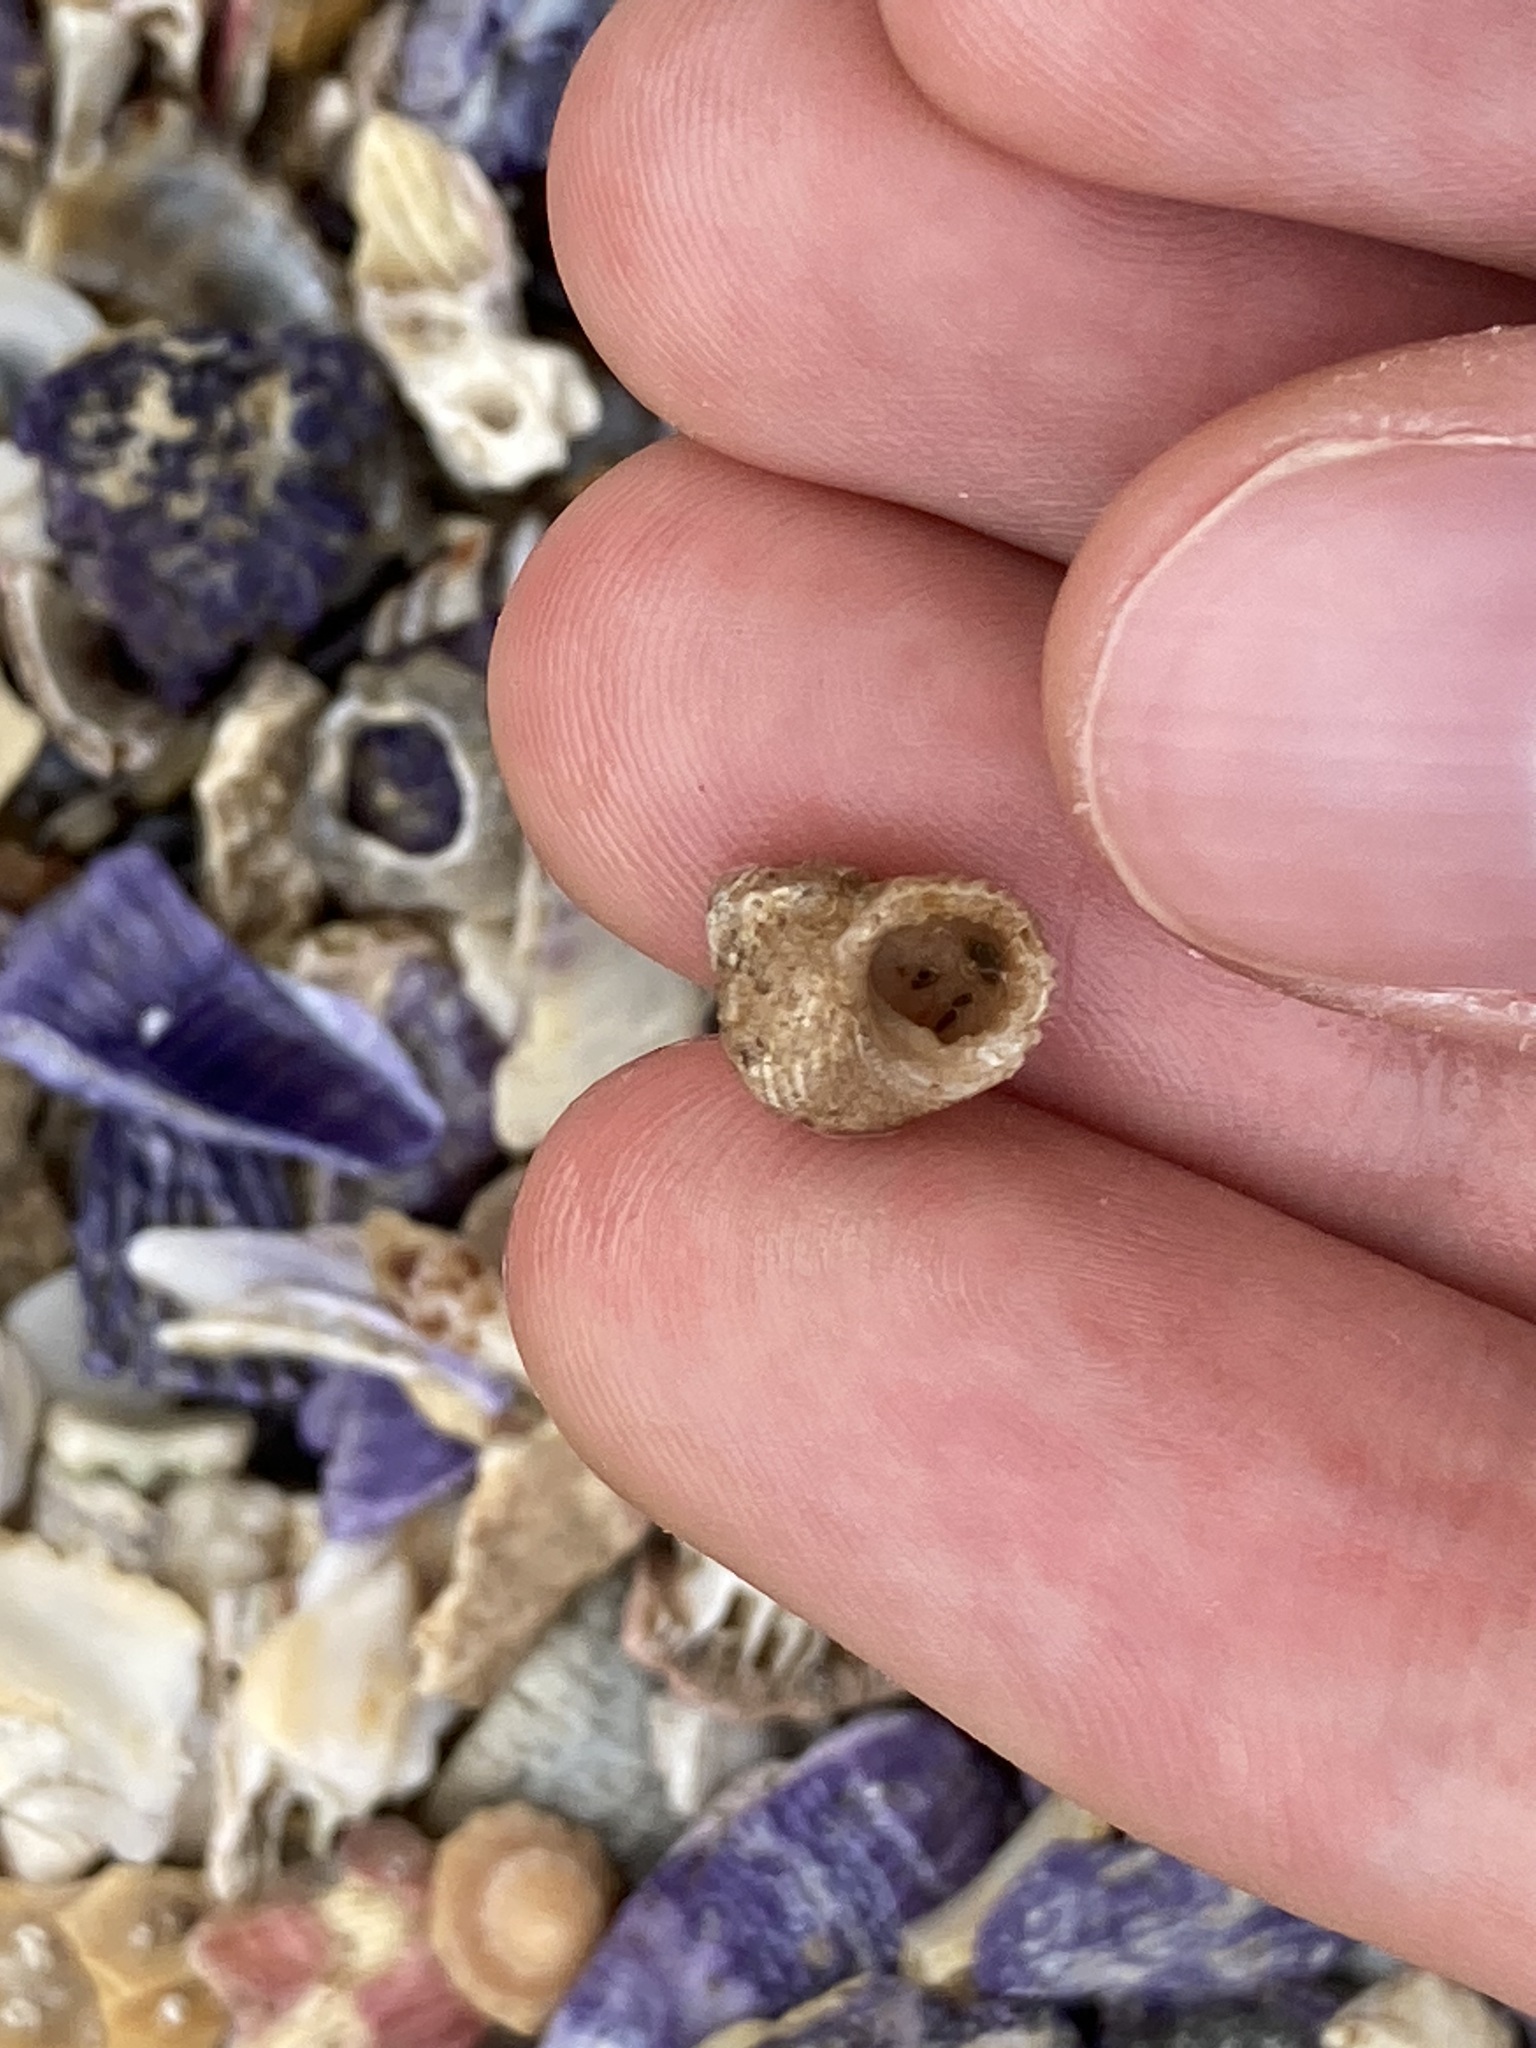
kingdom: Animalia
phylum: Mollusca
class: Gastropoda
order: Seguenziida
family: Chilodontaidae
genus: Herpetopoma
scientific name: Herpetopoma aspersum
